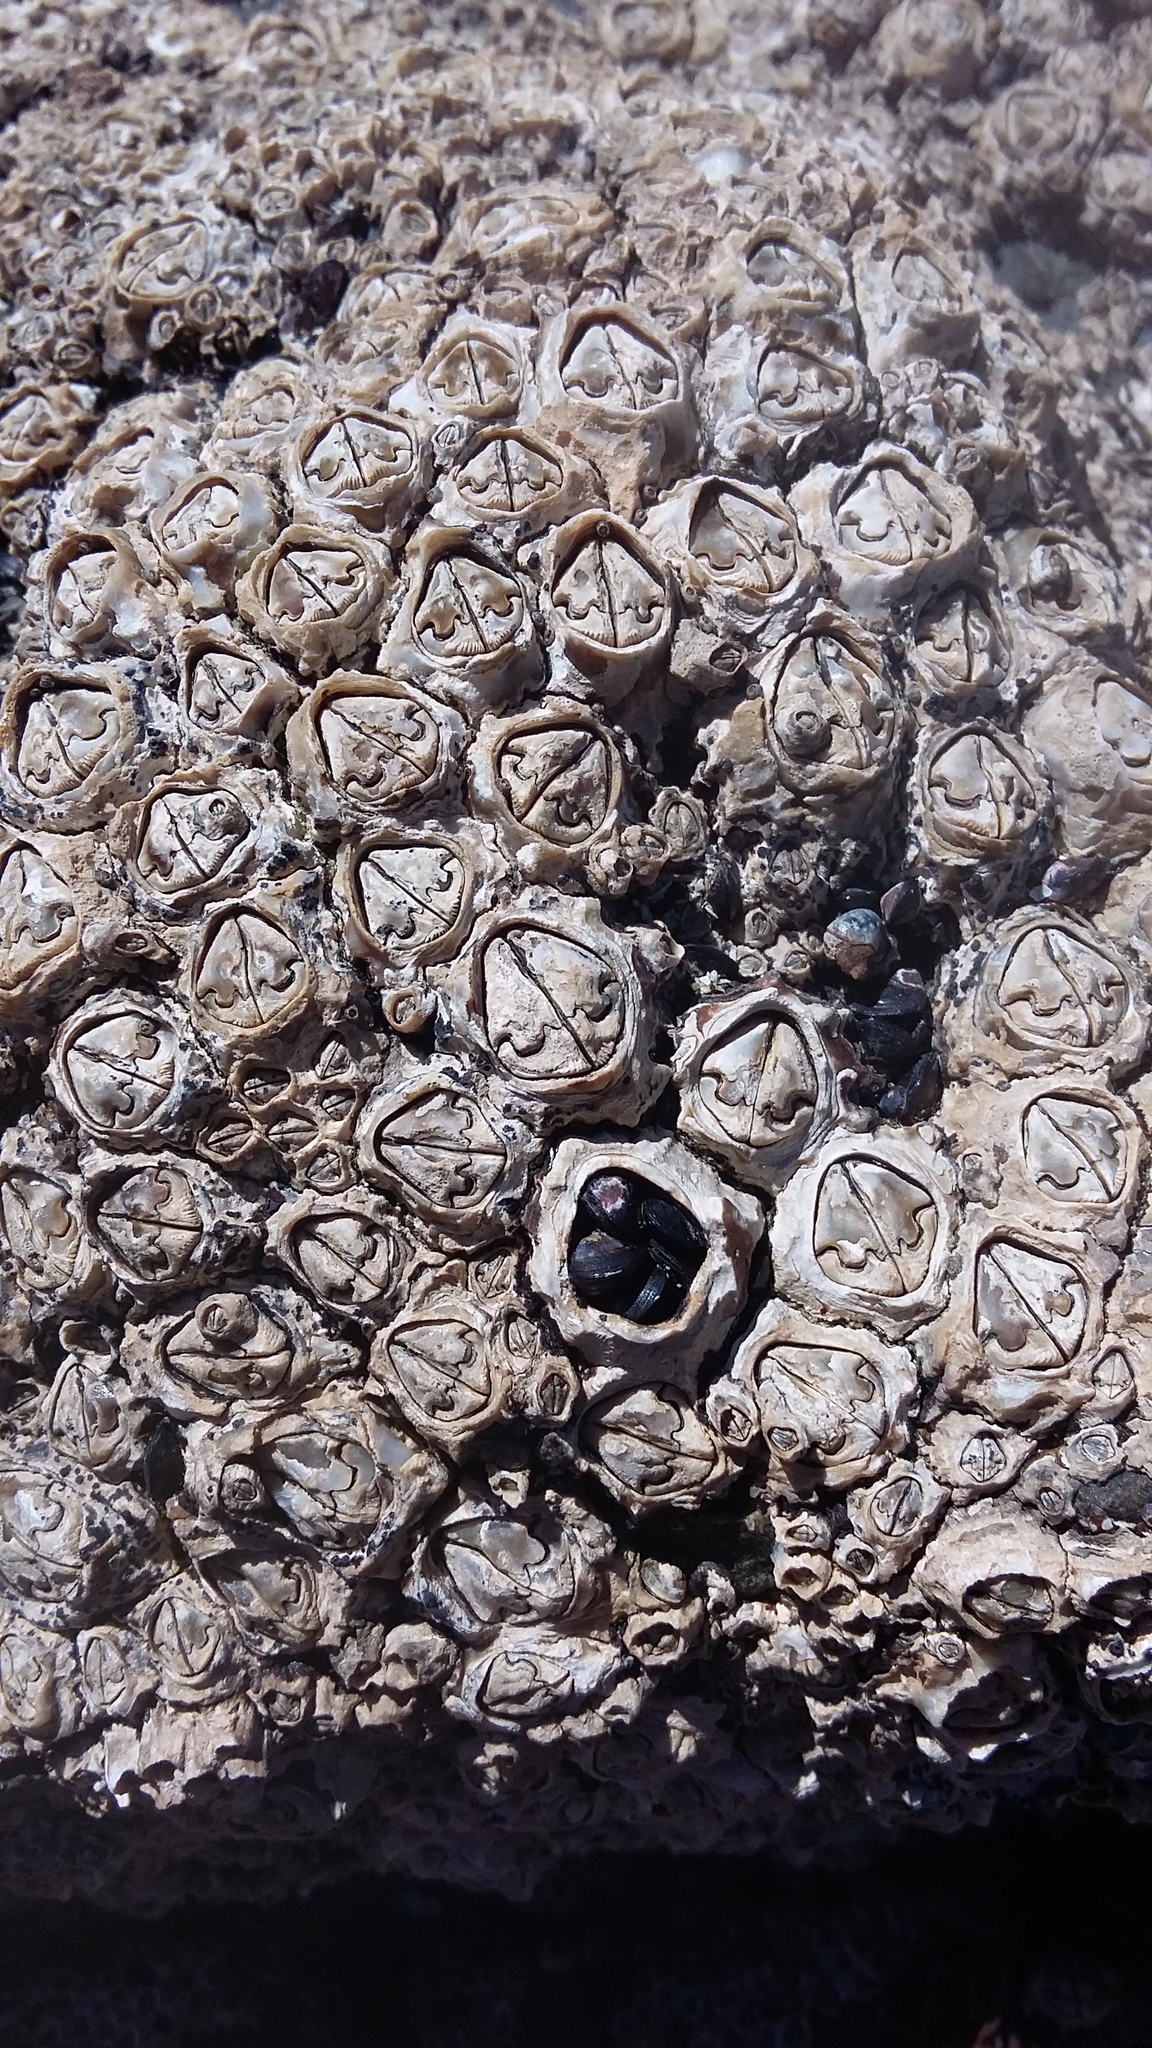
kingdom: Animalia
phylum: Arthropoda
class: Maxillopoda
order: Sessilia
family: Chthamalidae
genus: Chamaesipho
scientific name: Chamaesipho brunnea
